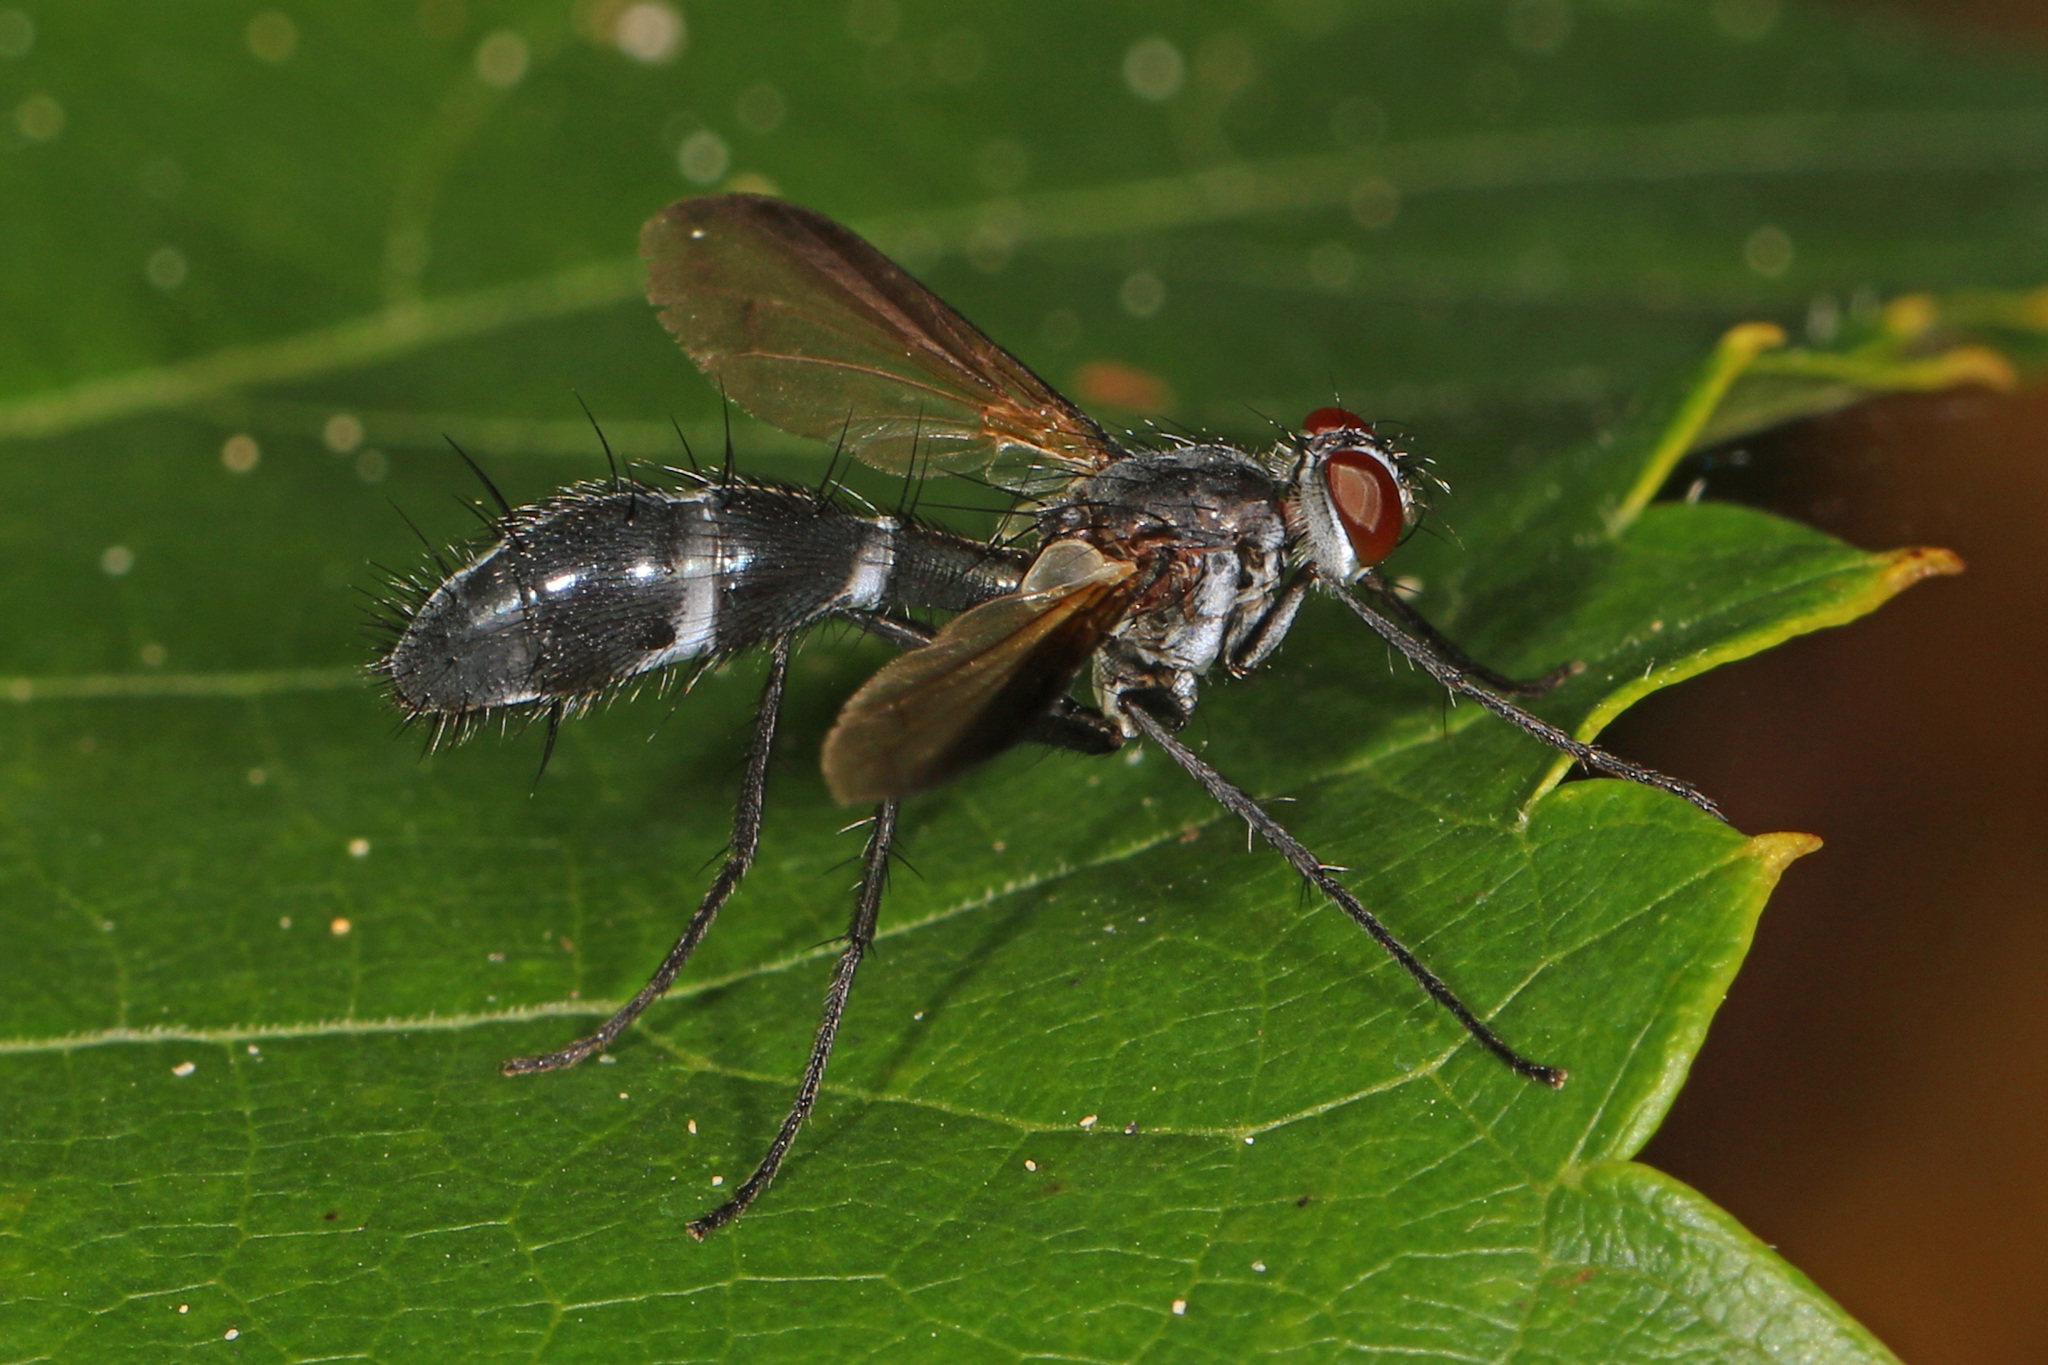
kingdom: Animalia
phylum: Arthropoda
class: Insecta
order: Diptera
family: Tachinidae
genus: Cordyligaster
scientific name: Cordyligaster septentrionalis
